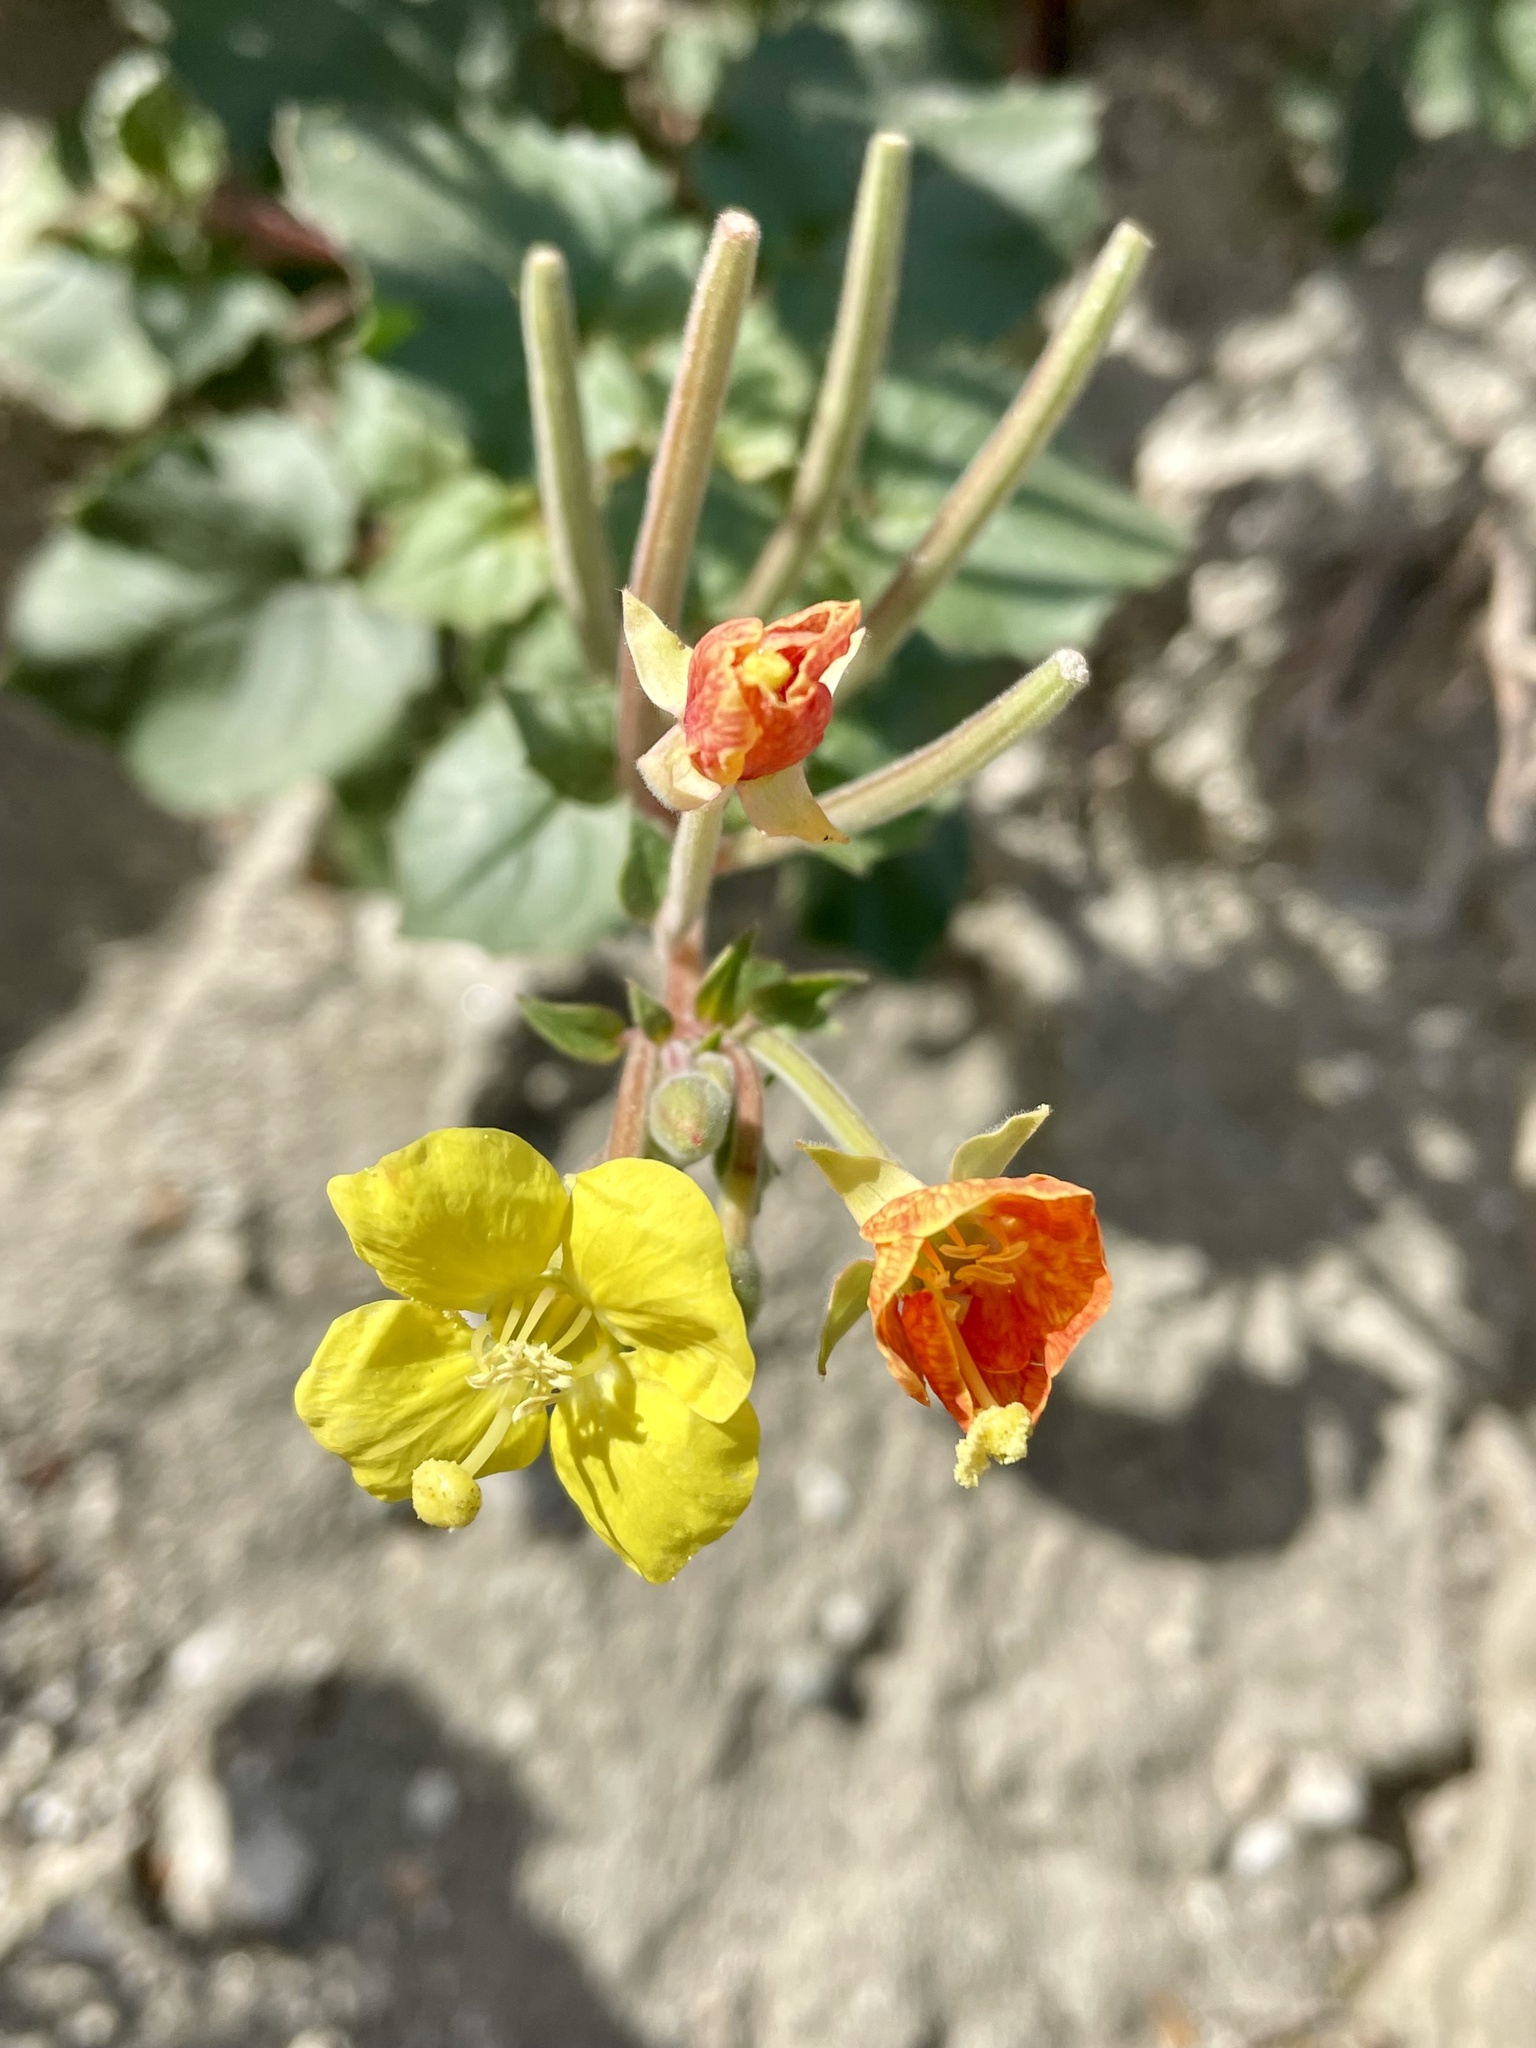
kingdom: Plantae
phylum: Tracheophyta
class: Magnoliopsida
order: Myrtales
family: Onagraceae
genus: Chylismia
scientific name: Chylismia cardiophylla
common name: Heartleaf suncup
